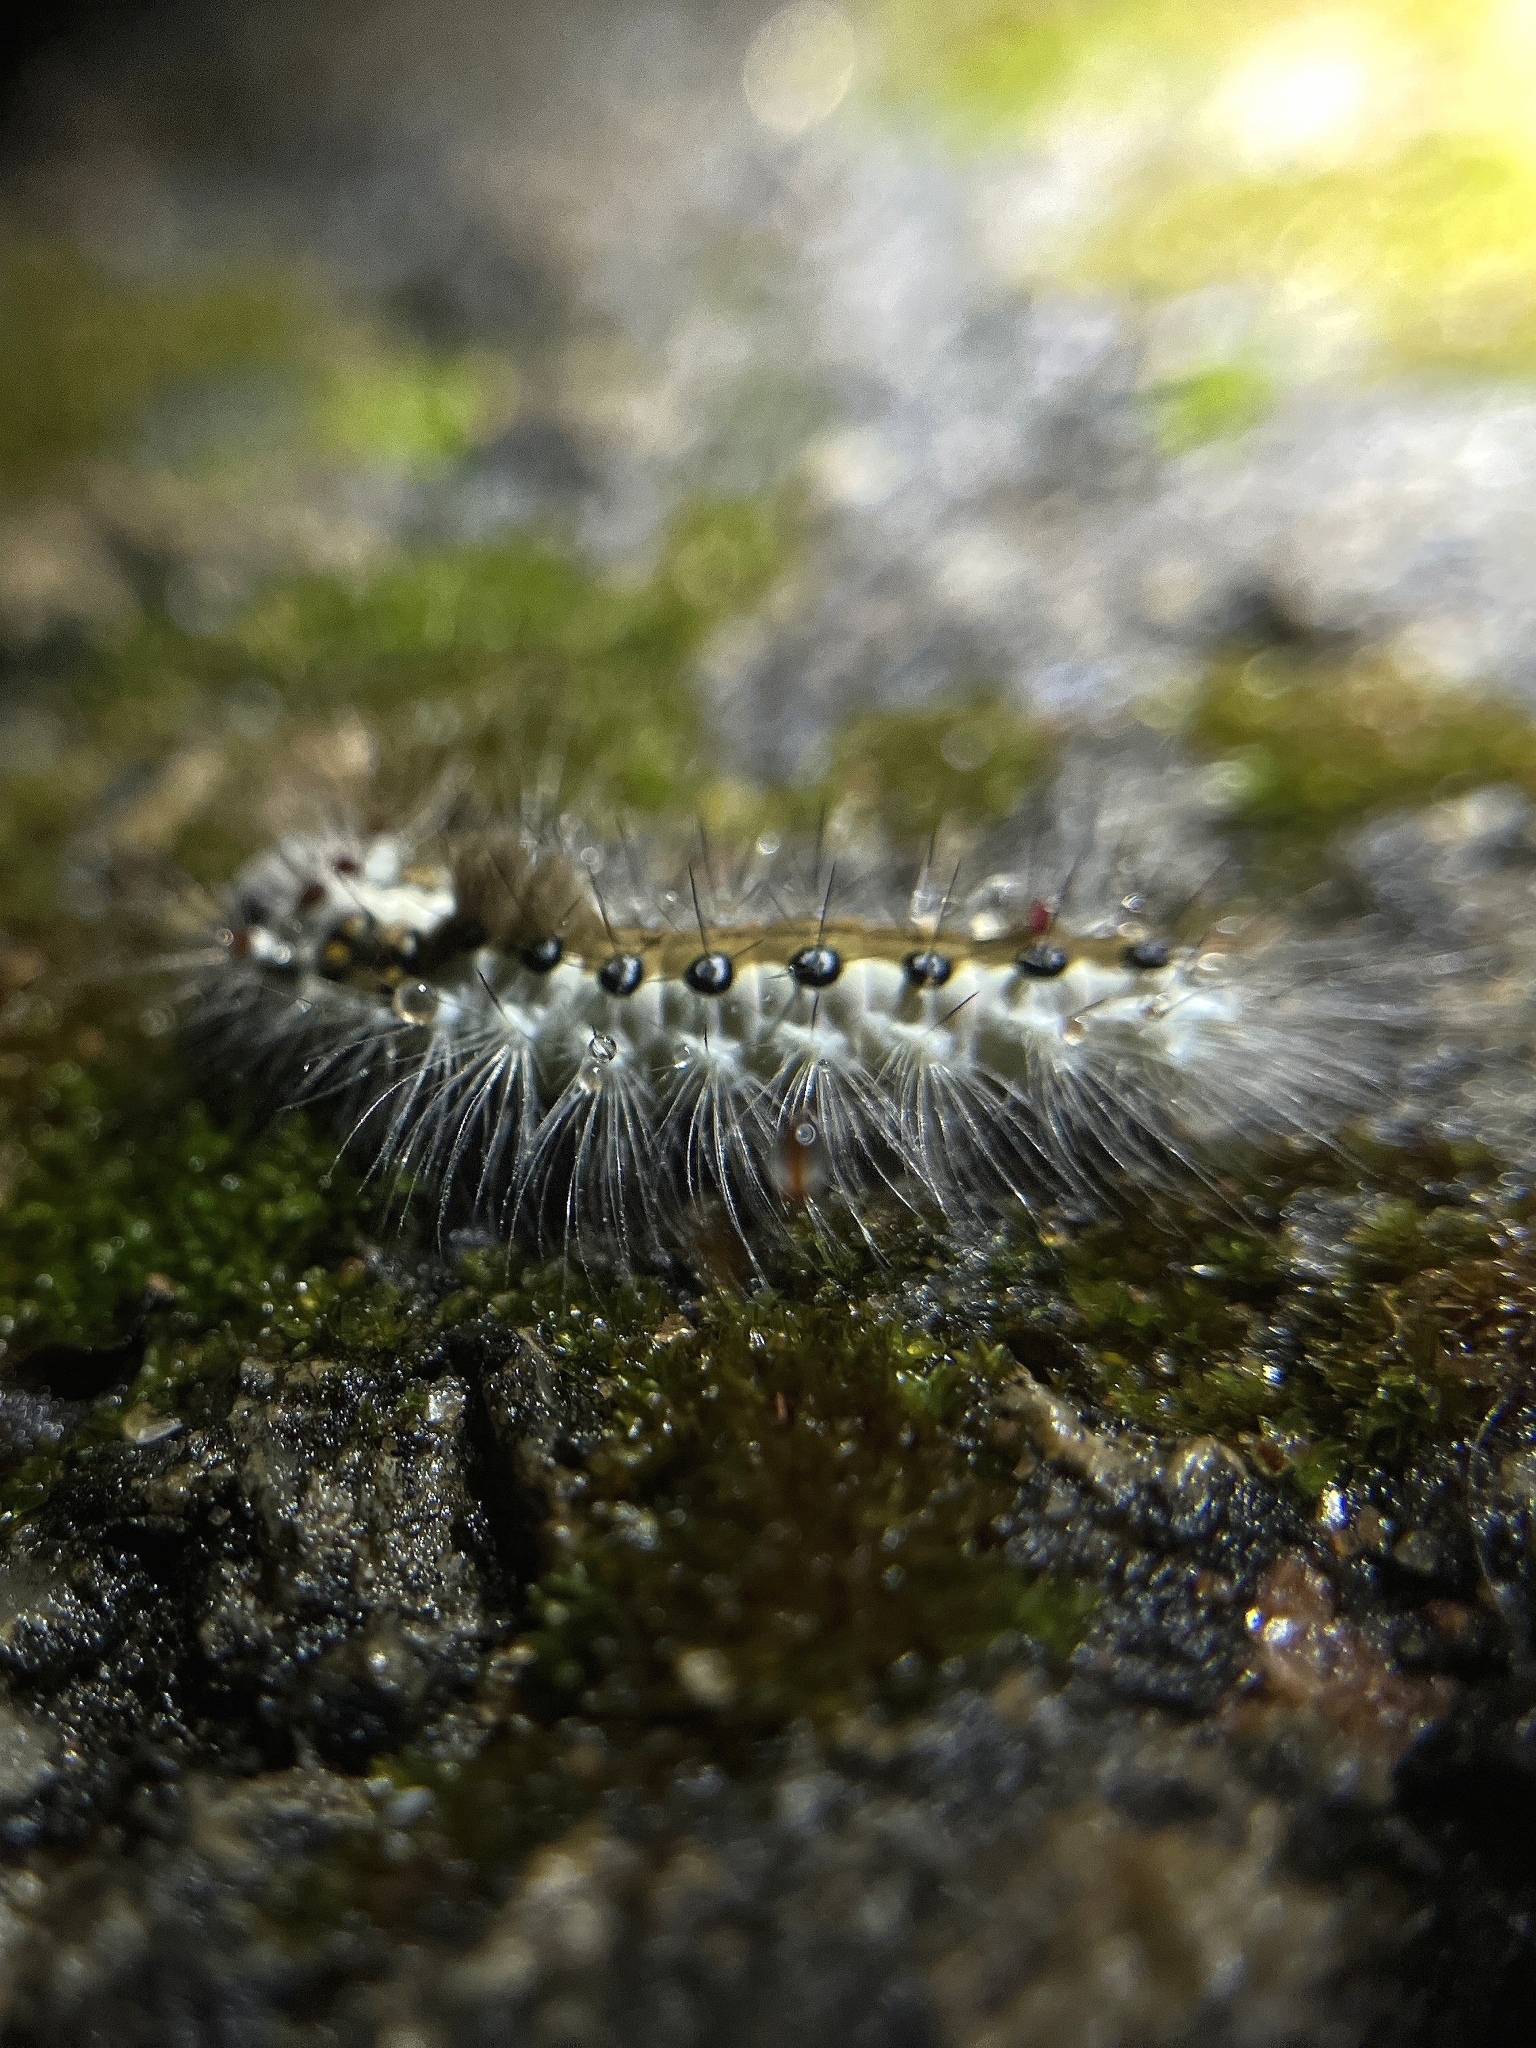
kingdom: Animalia
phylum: Arthropoda
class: Insecta
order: Lepidoptera
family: Erebidae
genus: Perina
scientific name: Perina nuda
